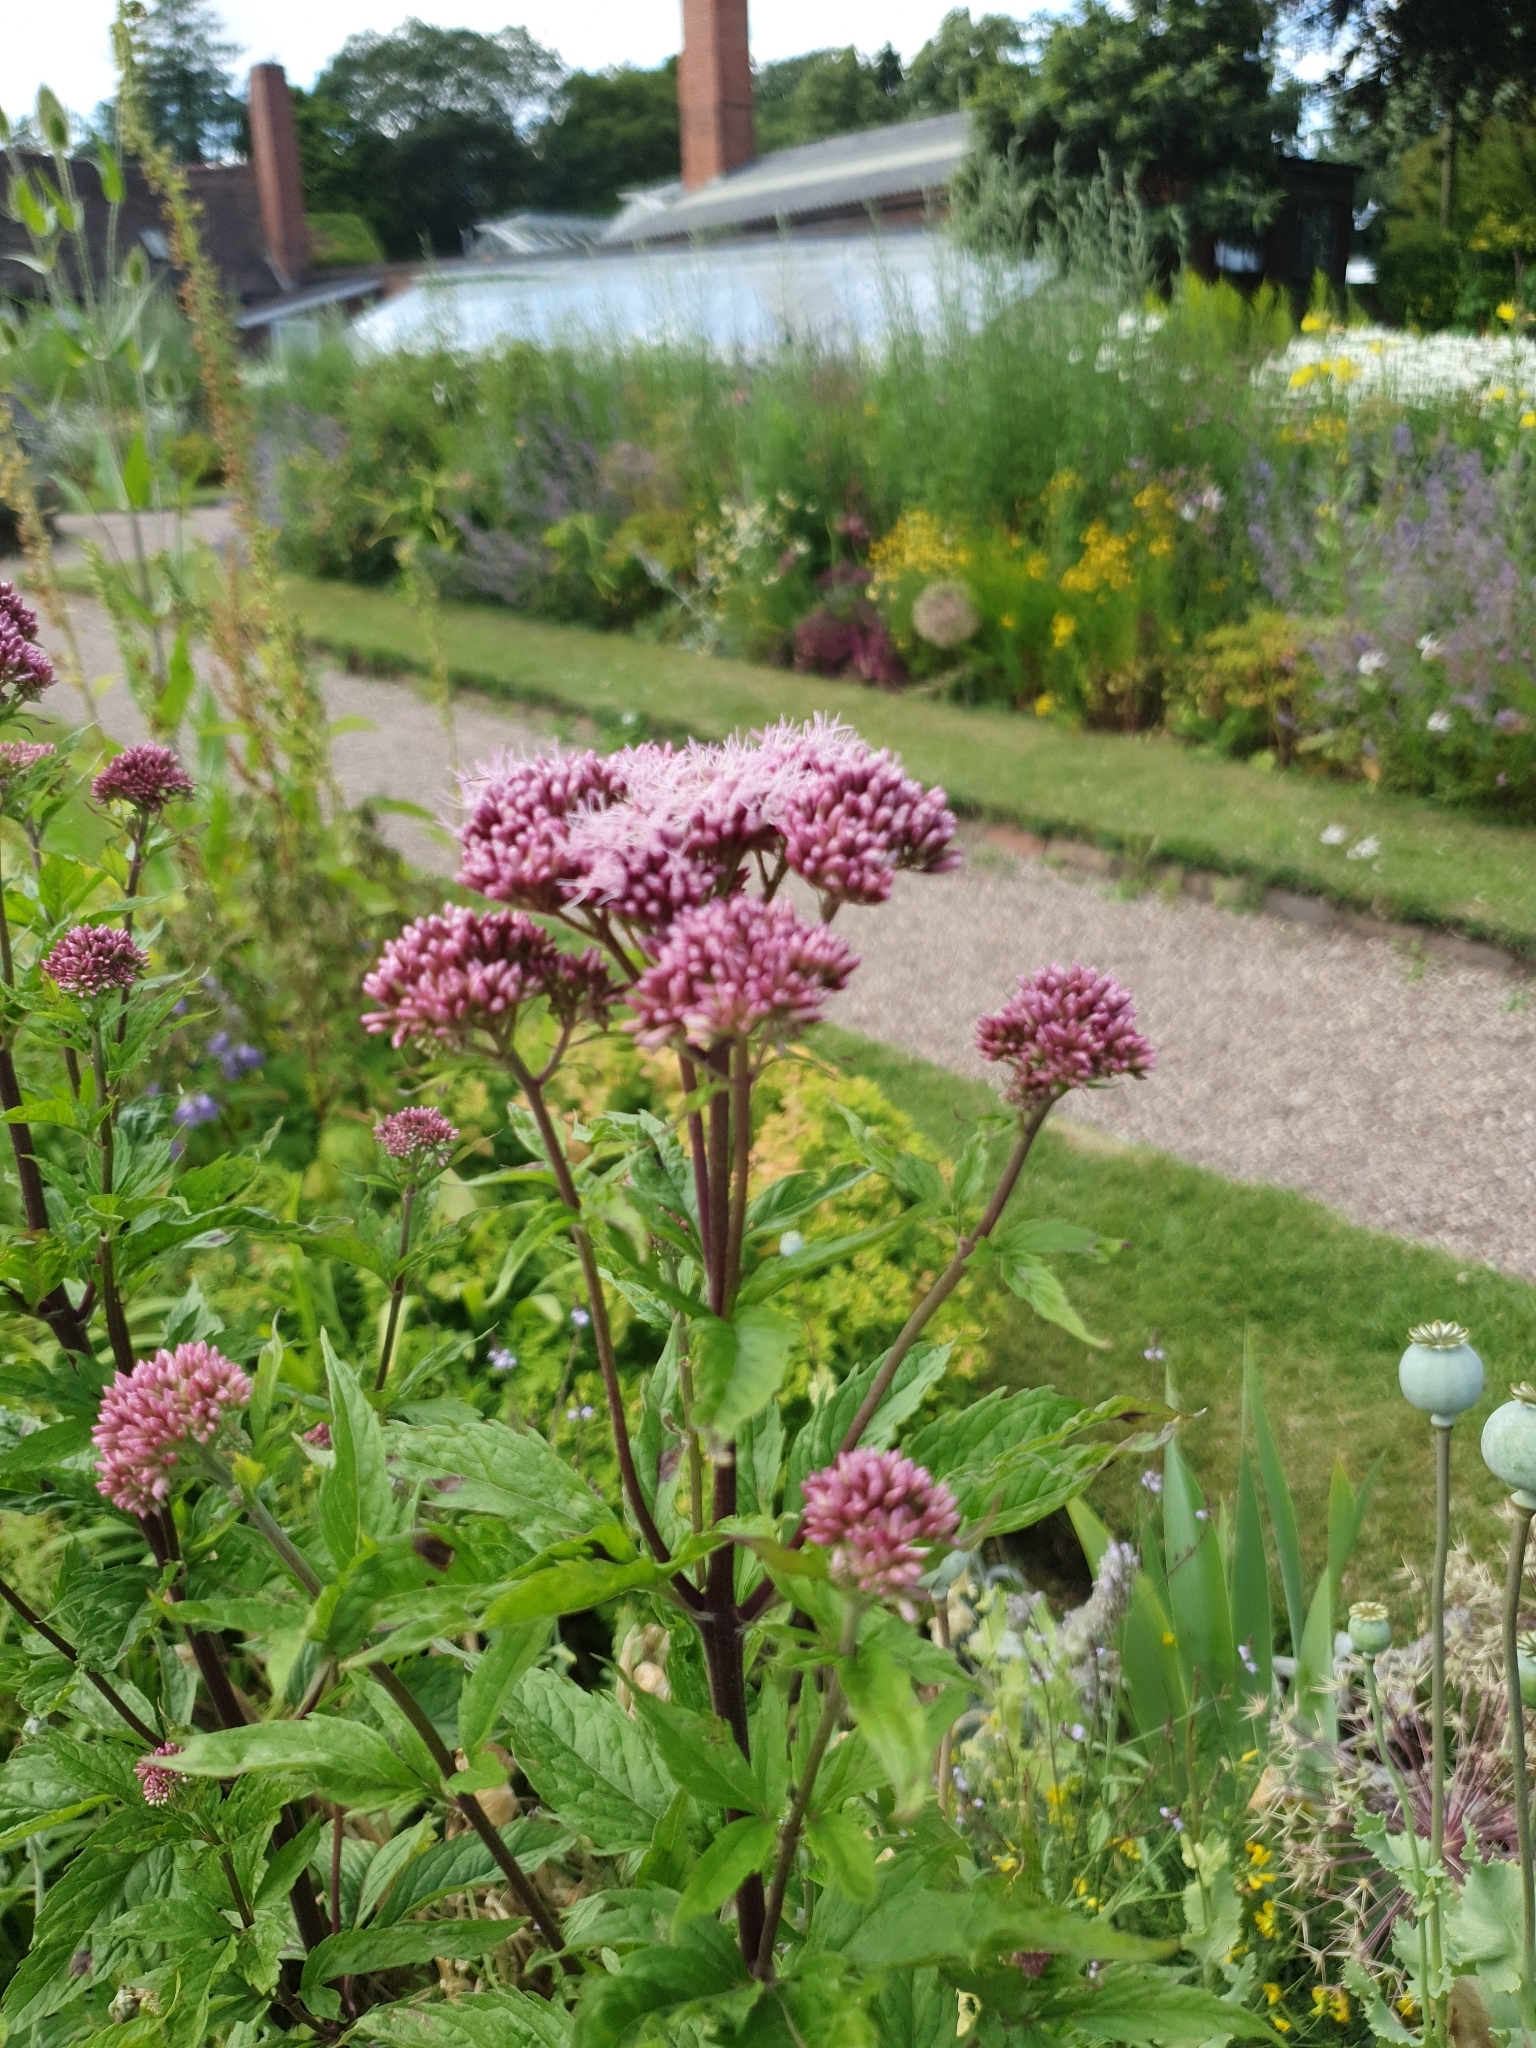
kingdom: Plantae
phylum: Tracheophyta
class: Magnoliopsida
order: Asterales
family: Asteraceae
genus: Eupatorium
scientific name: Eupatorium cannabinum
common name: Hemp-agrimony
